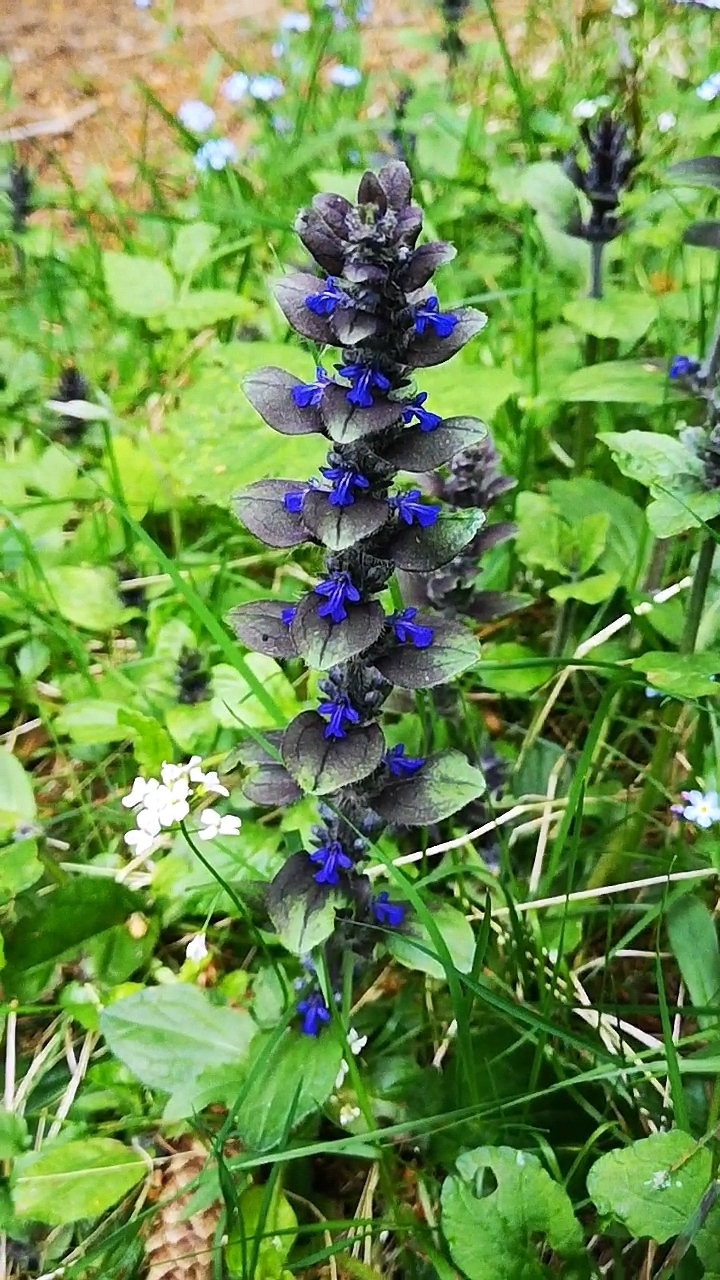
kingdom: Plantae
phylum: Tracheophyta
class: Magnoliopsida
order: Lamiales
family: Lamiaceae
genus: Ajuga
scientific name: Ajuga pyramidalis
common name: Pyramid bugle
